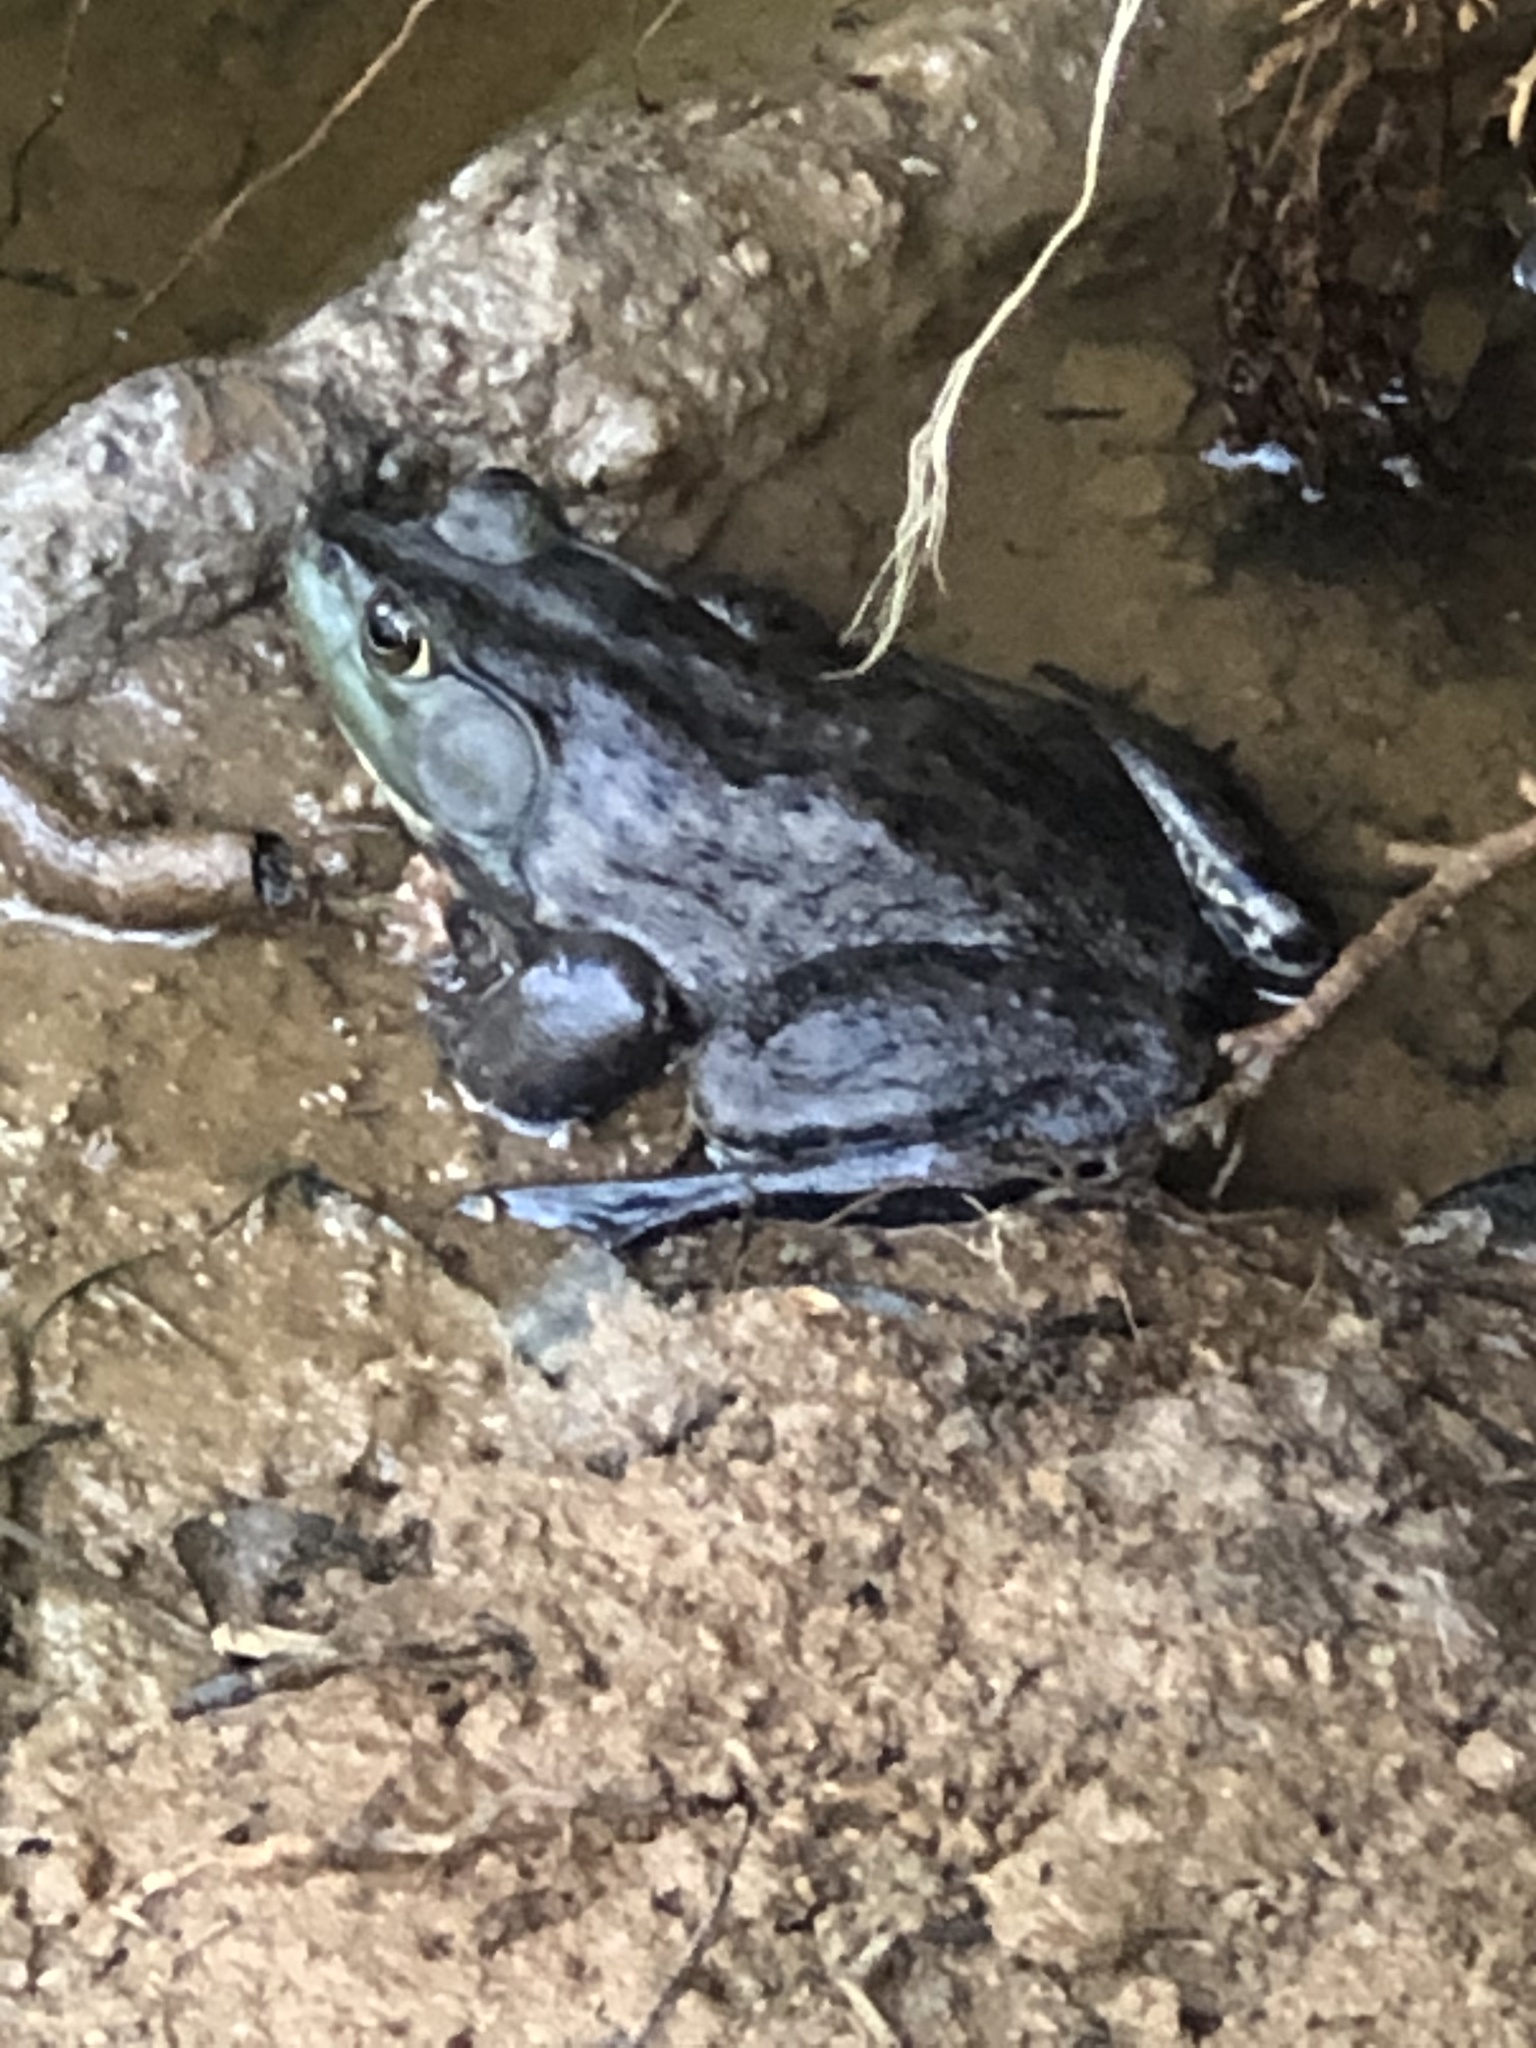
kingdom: Animalia
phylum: Chordata
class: Amphibia
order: Anura
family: Ranidae
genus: Lithobates
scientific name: Lithobates catesbeianus
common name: American bullfrog
